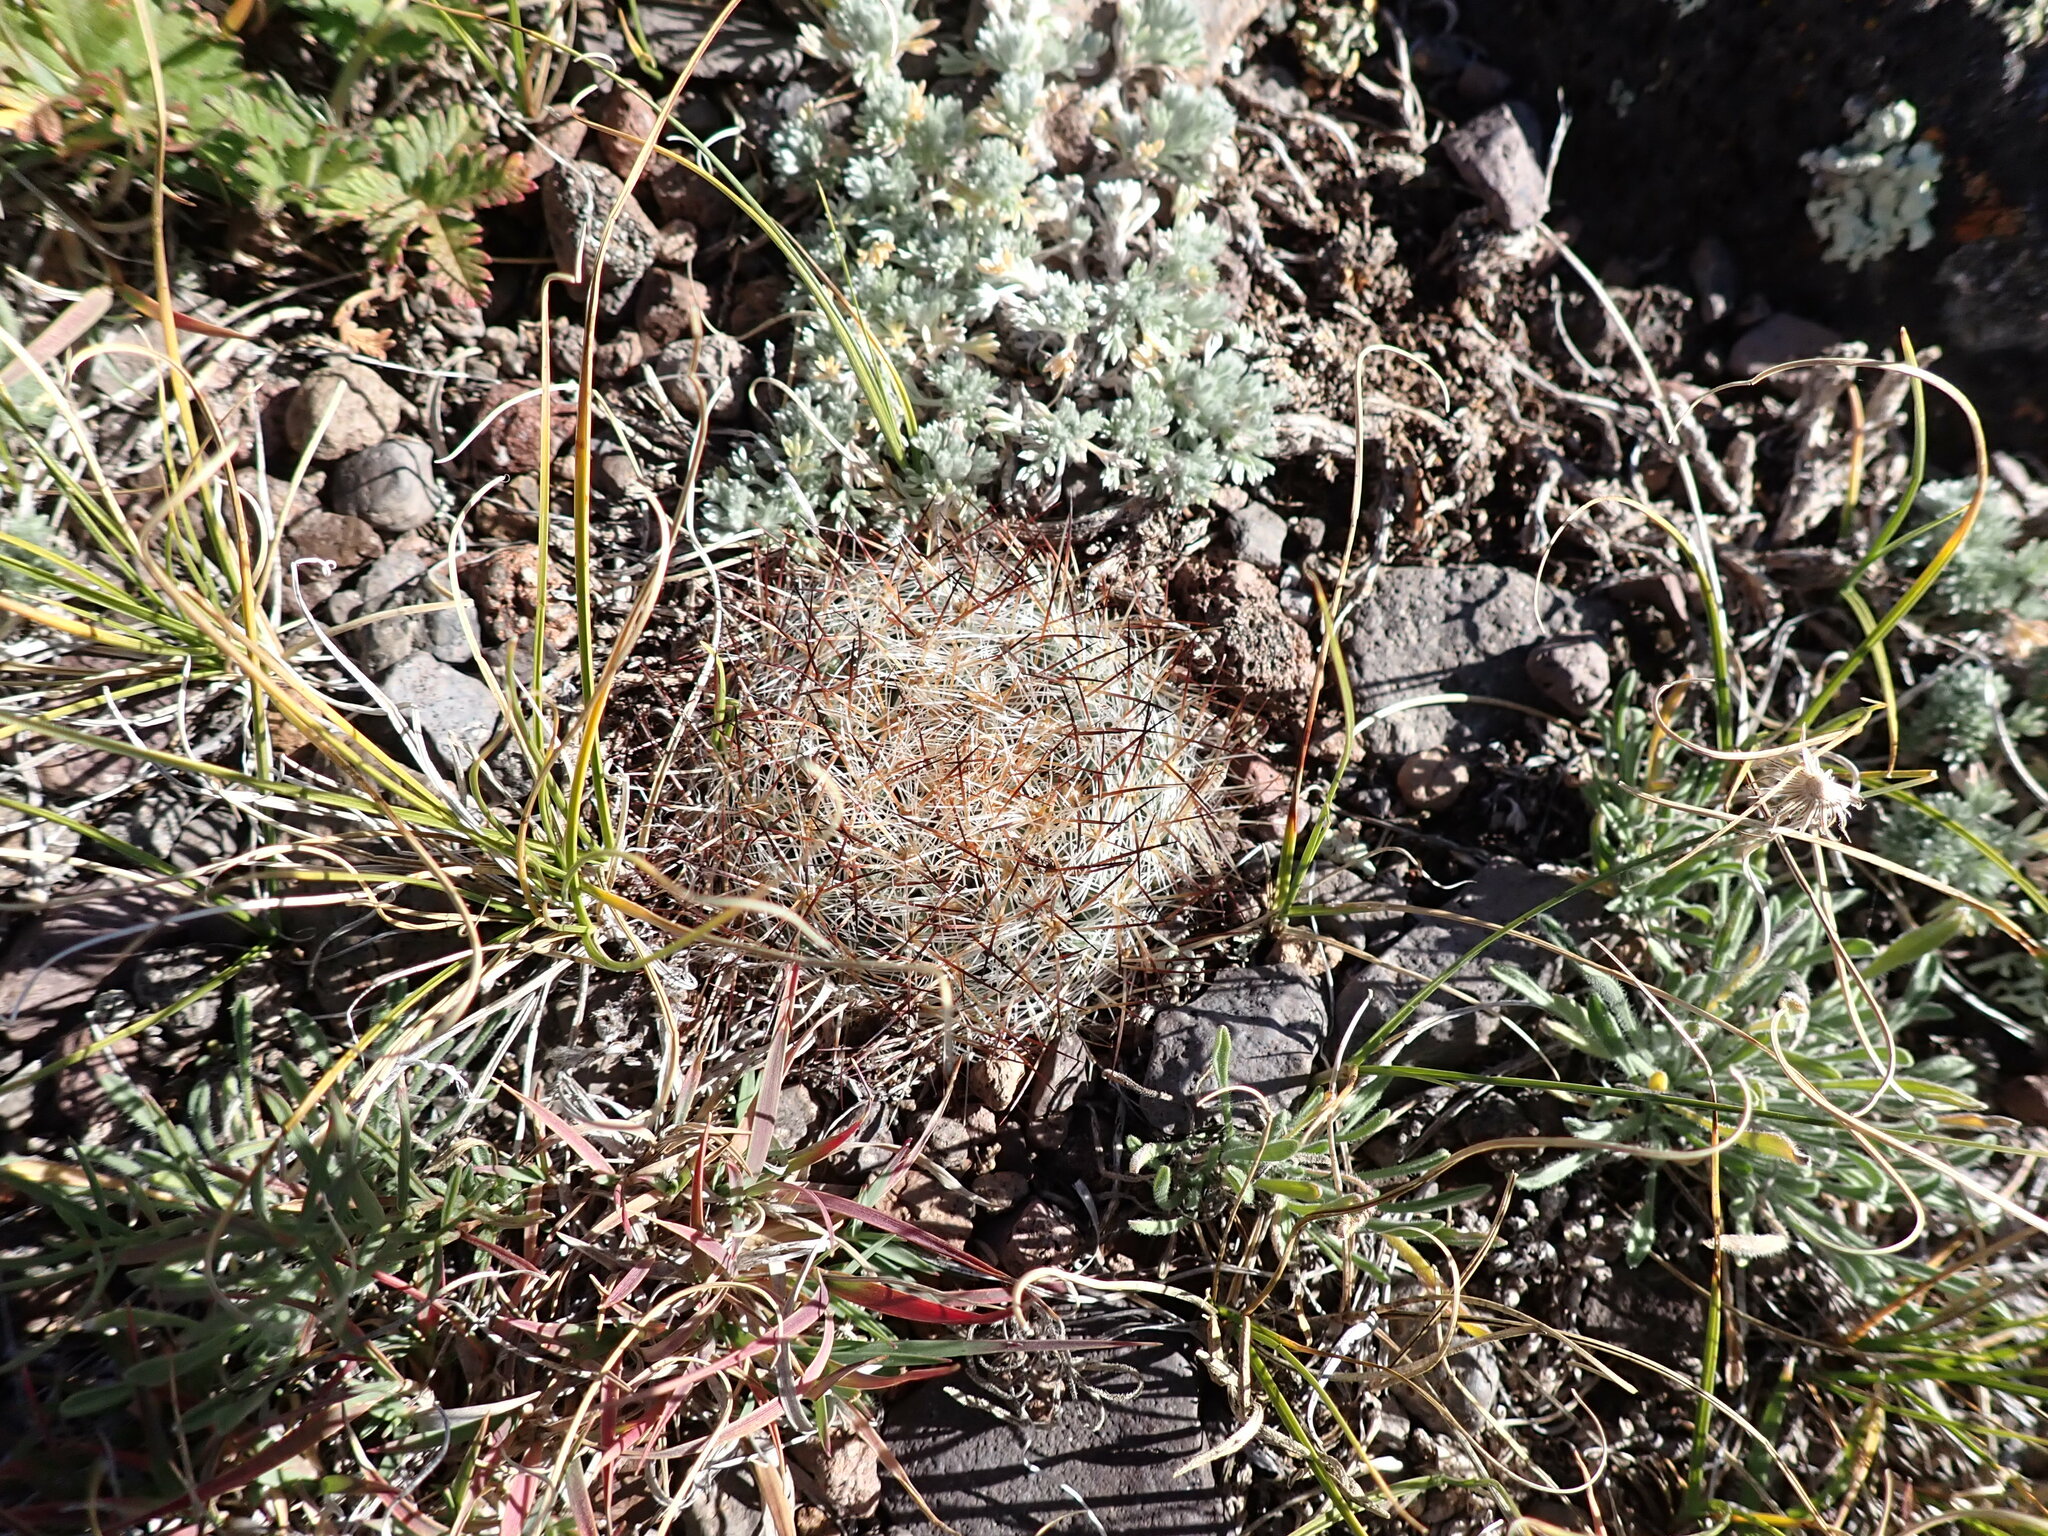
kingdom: Plantae
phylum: Tracheophyta
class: Magnoliopsida
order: Caryophyllales
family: Cactaceae
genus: Pediocactus
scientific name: Pediocactus simpsonii
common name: Simpson's hedgehog cactus
